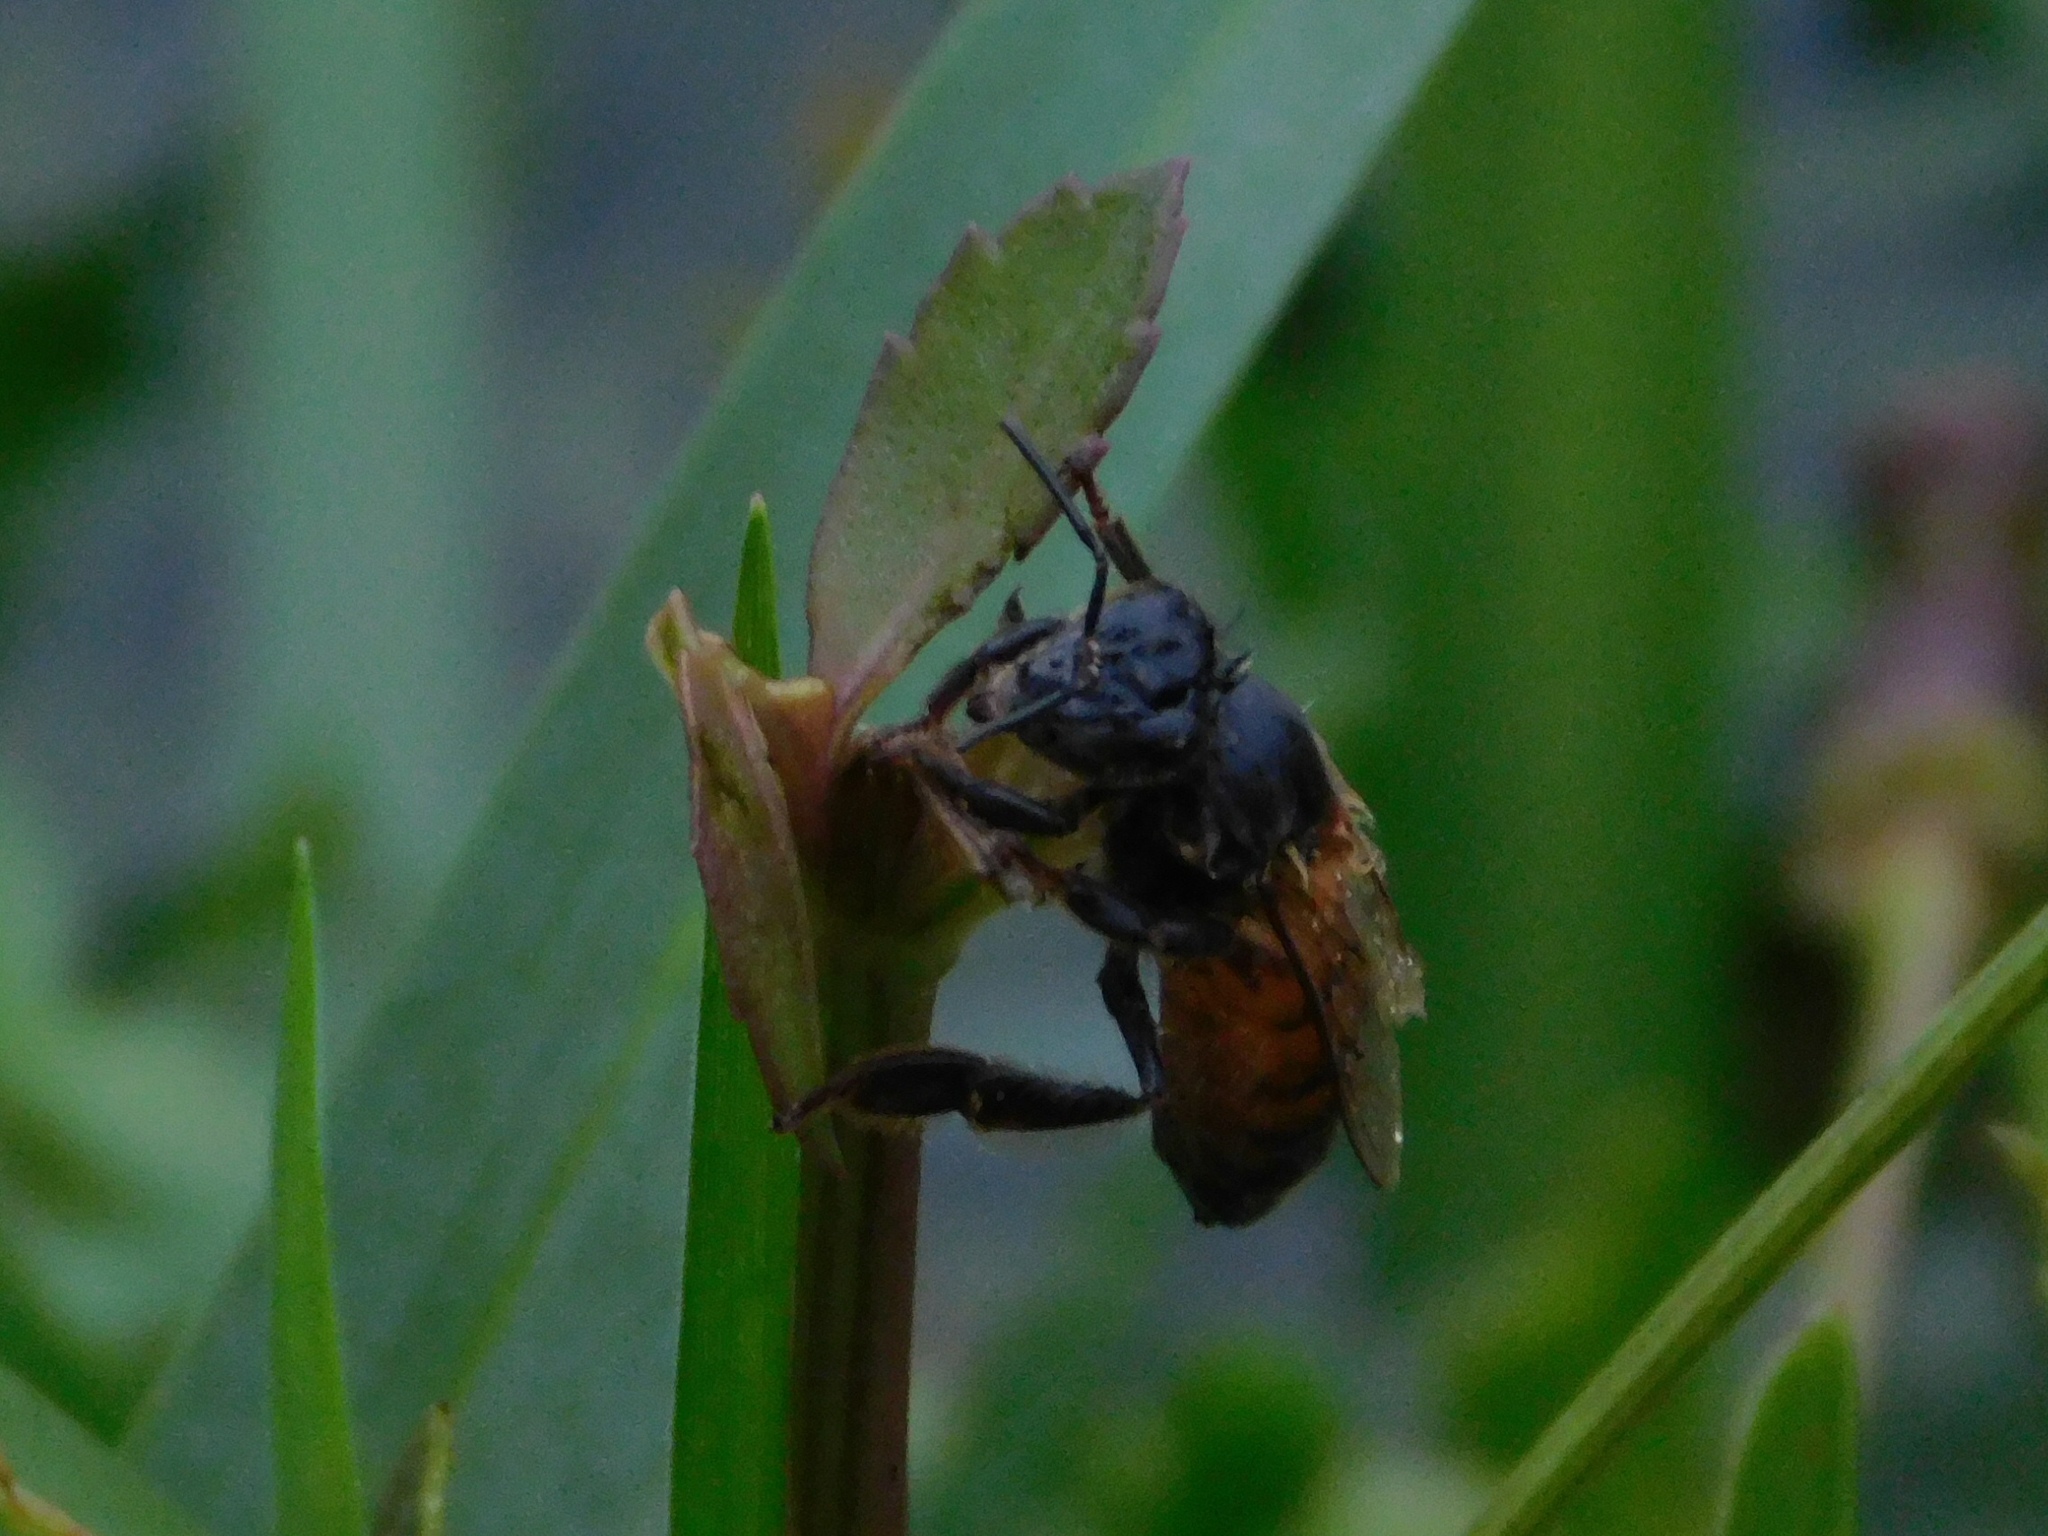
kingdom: Animalia
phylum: Arthropoda
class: Insecta
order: Hymenoptera
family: Apidae
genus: Apis
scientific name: Apis mellifera
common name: Honey bee
